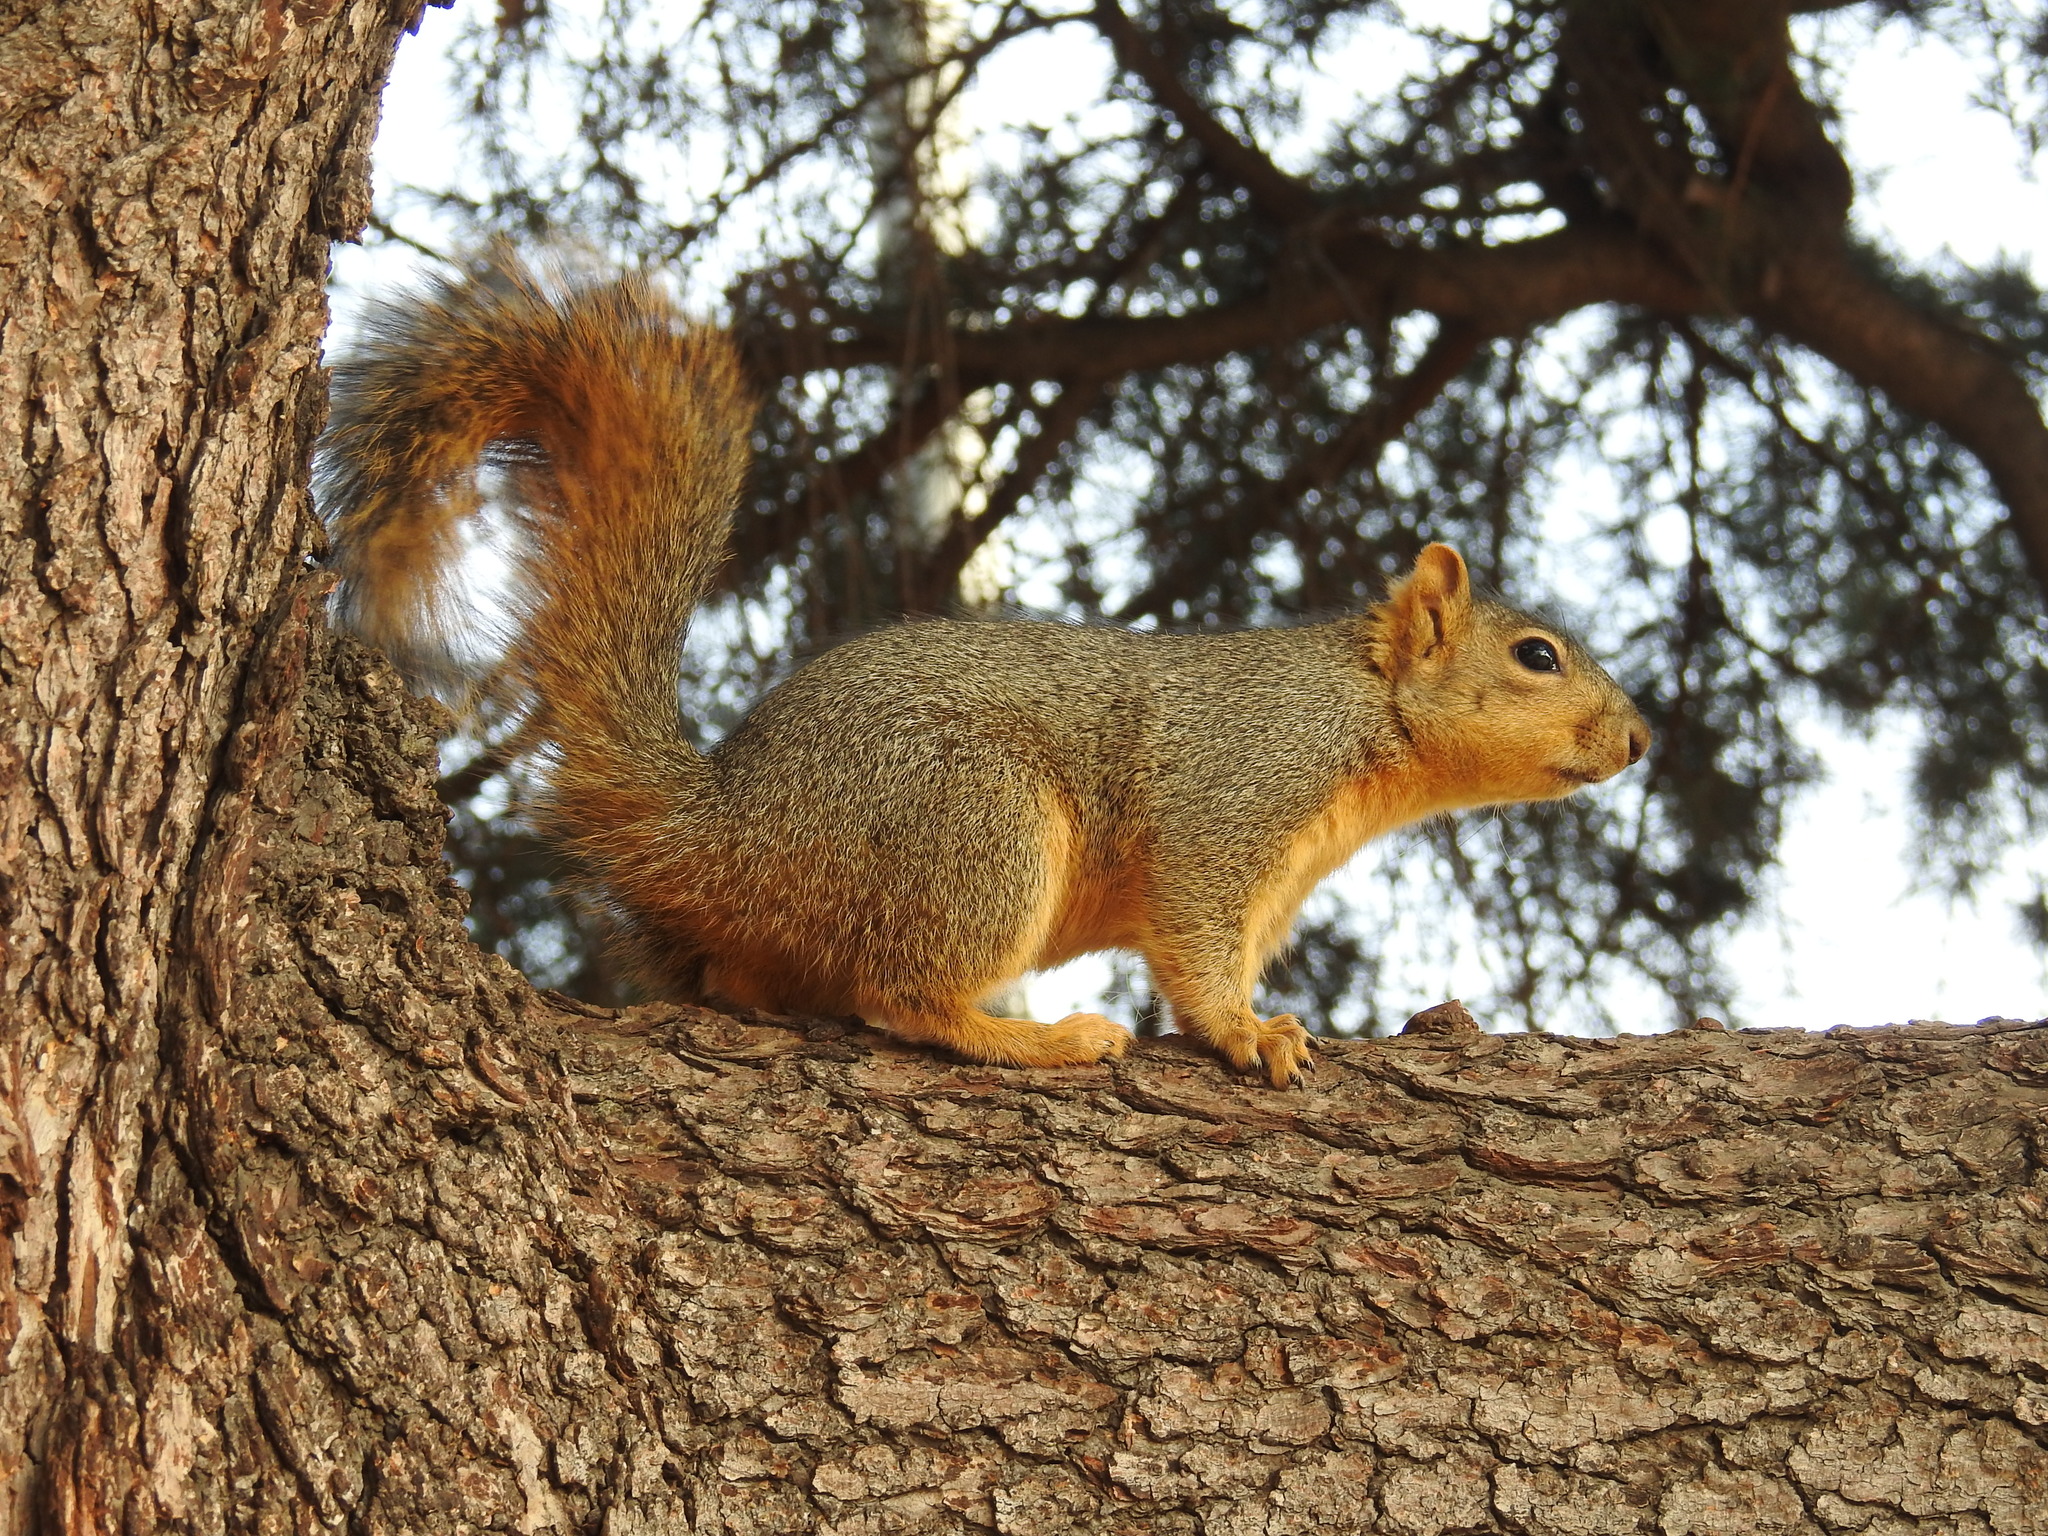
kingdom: Animalia
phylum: Chordata
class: Mammalia
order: Rodentia
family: Sciuridae
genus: Sciurus
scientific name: Sciurus niger
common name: Fox squirrel
